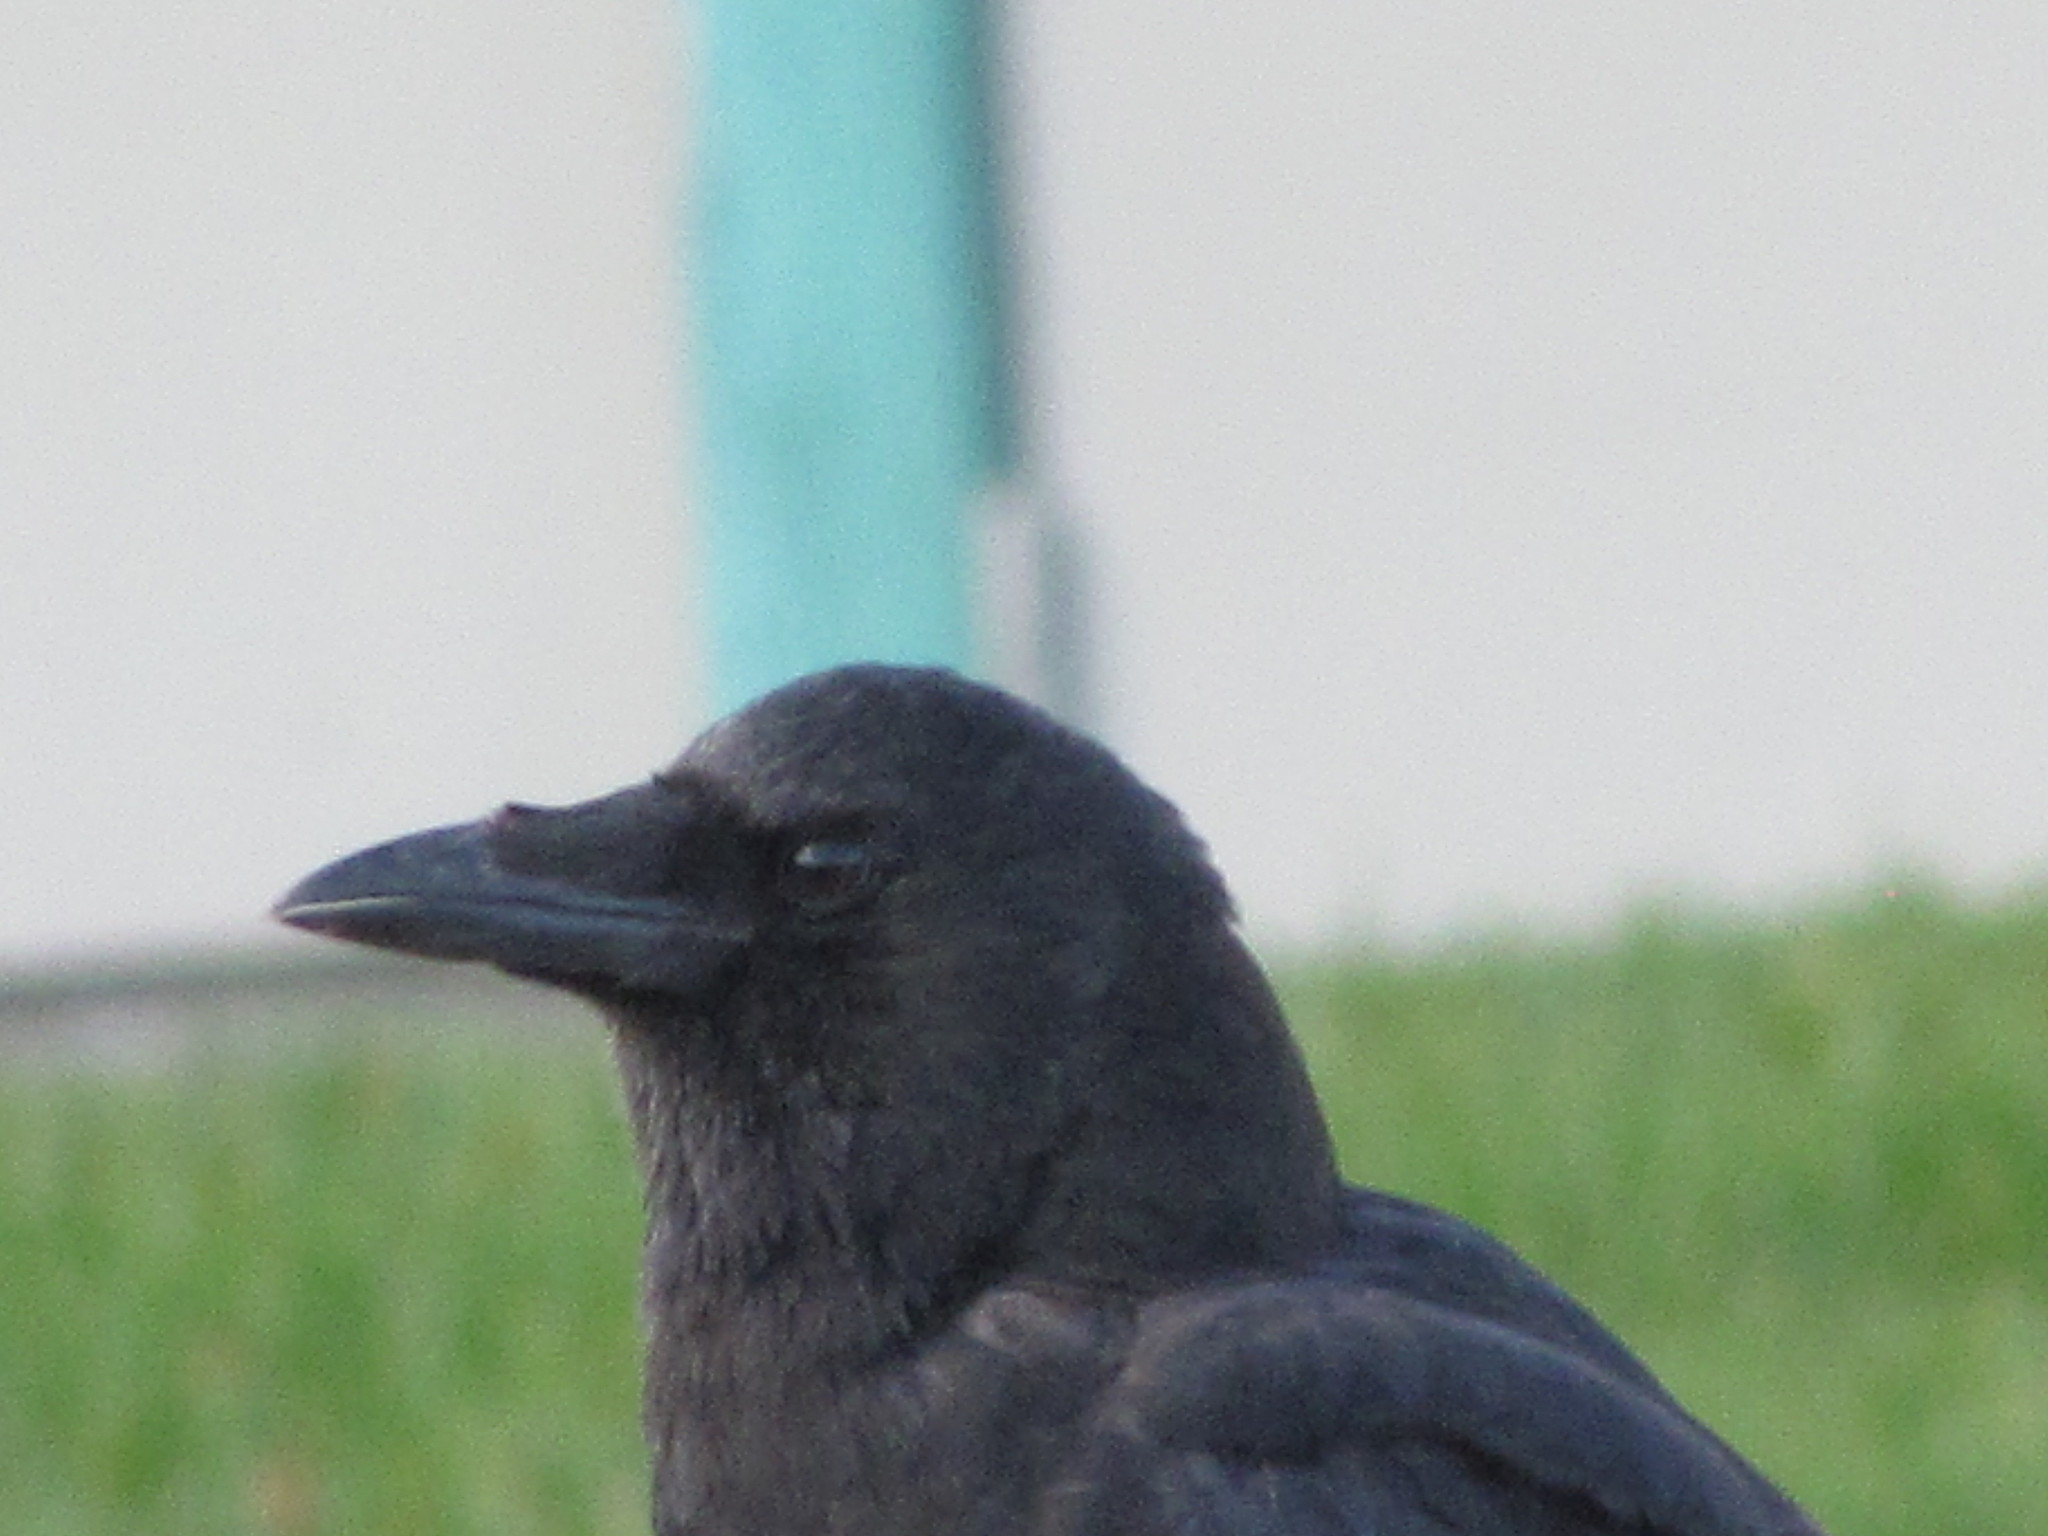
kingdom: Animalia
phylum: Chordata
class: Aves
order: Passeriformes
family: Corvidae
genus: Corvus
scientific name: Corvus brachyrhynchos
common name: American crow
